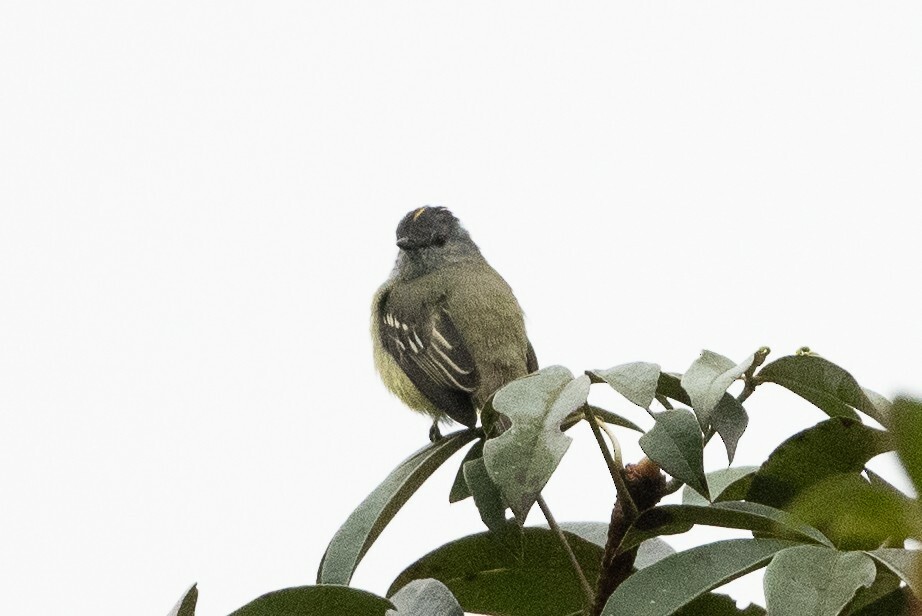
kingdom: Animalia
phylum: Chordata
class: Aves
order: Passeriformes
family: Tyrannidae
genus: Tyrannulus
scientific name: Tyrannulus elatus
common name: Yellow-crowned tyrannulet
